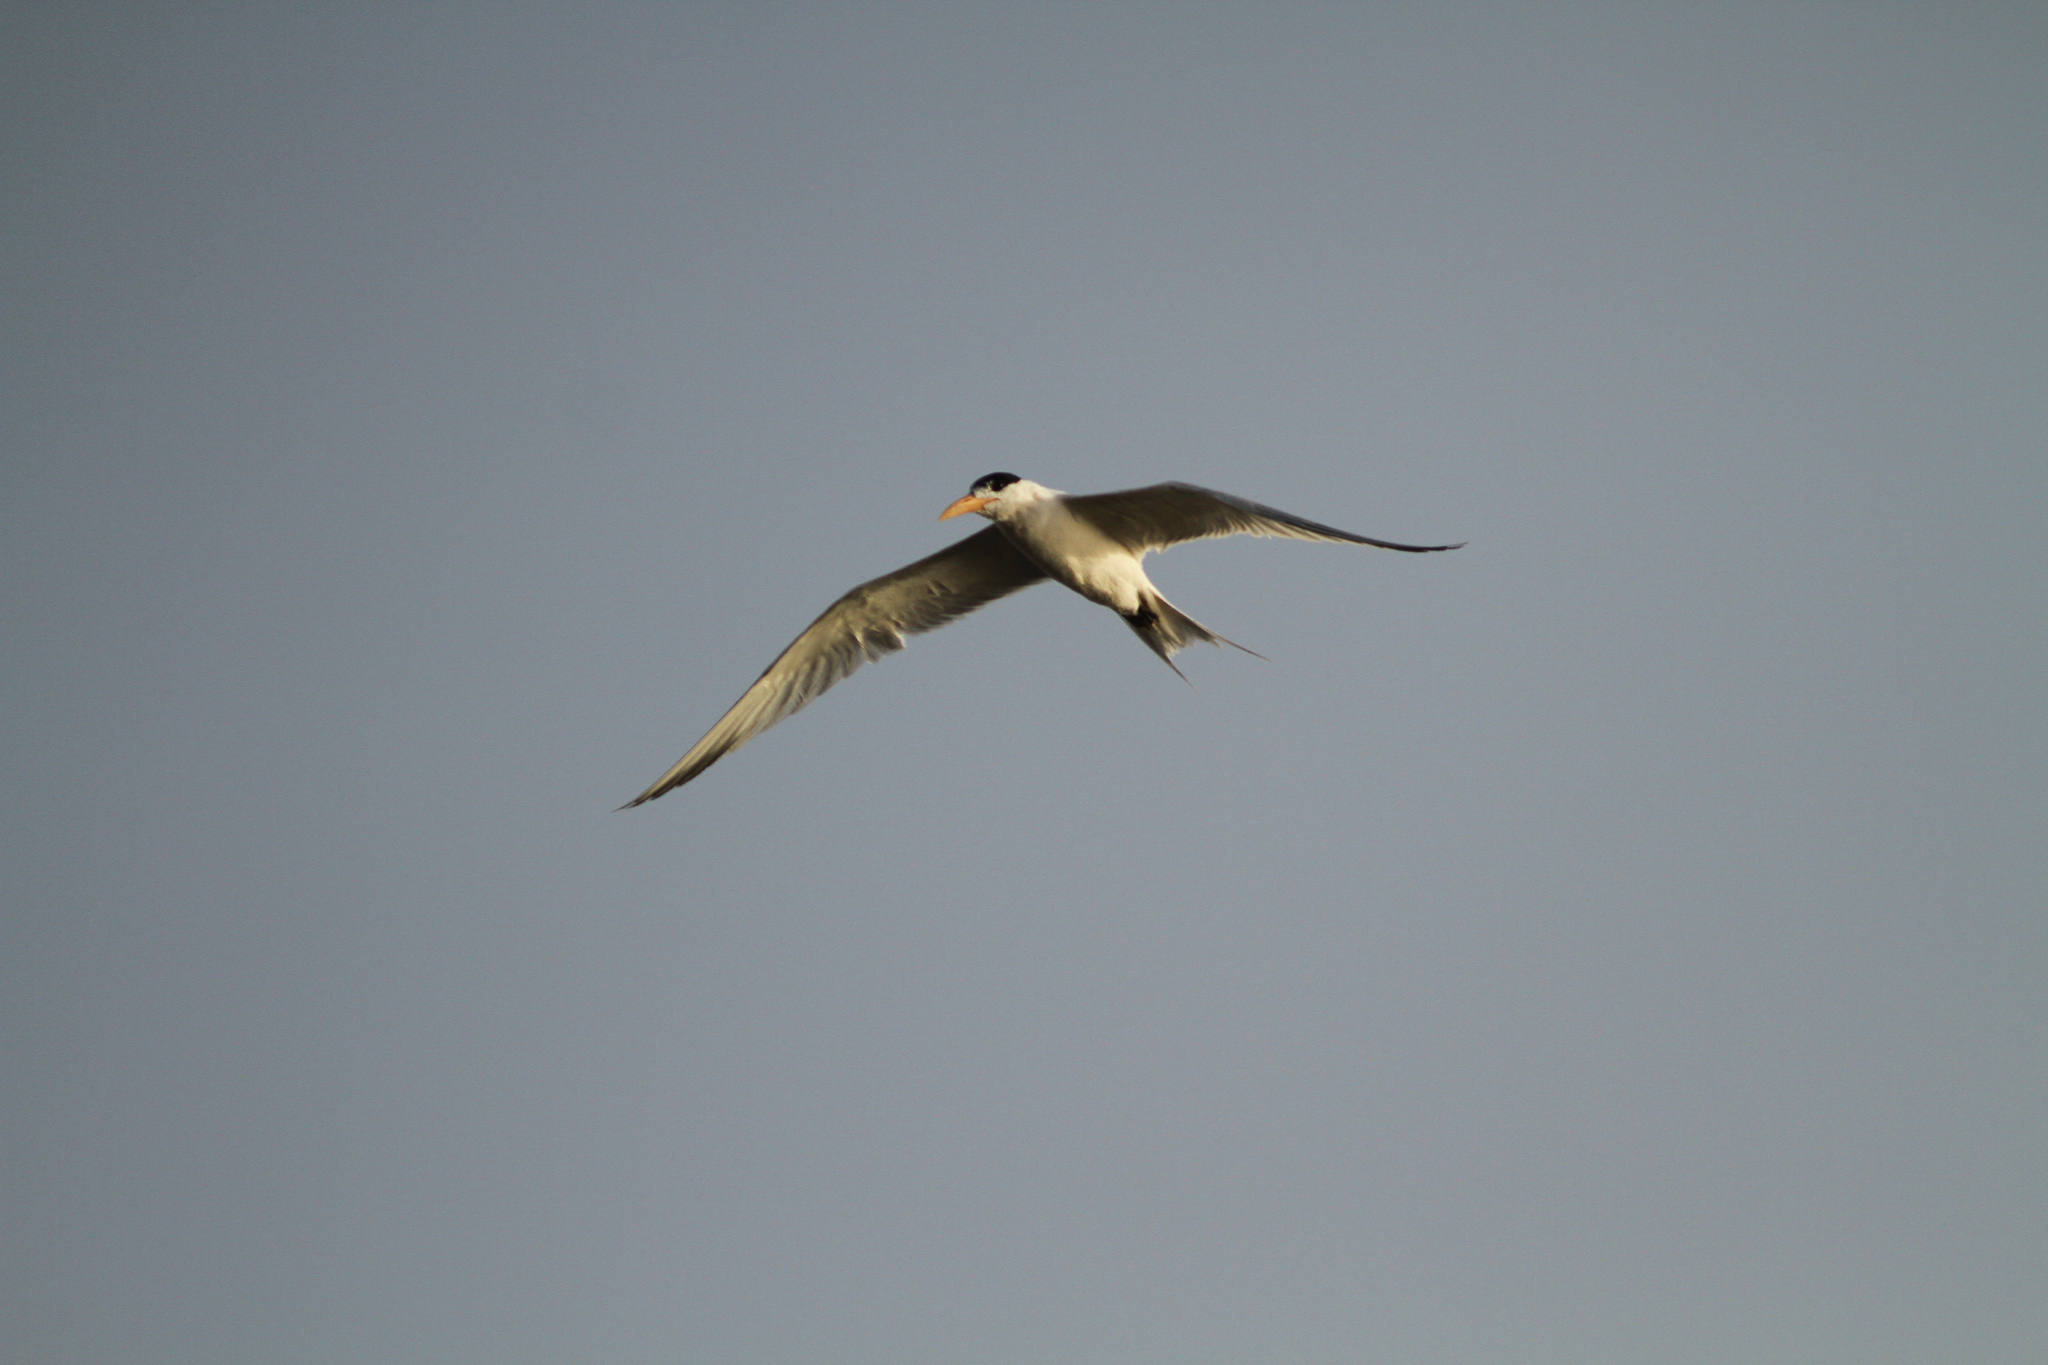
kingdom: Animalia
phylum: Chordata
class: Aves
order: Charadriiformes
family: Laridae
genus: Thalasseus
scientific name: Thalasseus albididorsalis
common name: West african crested tern
